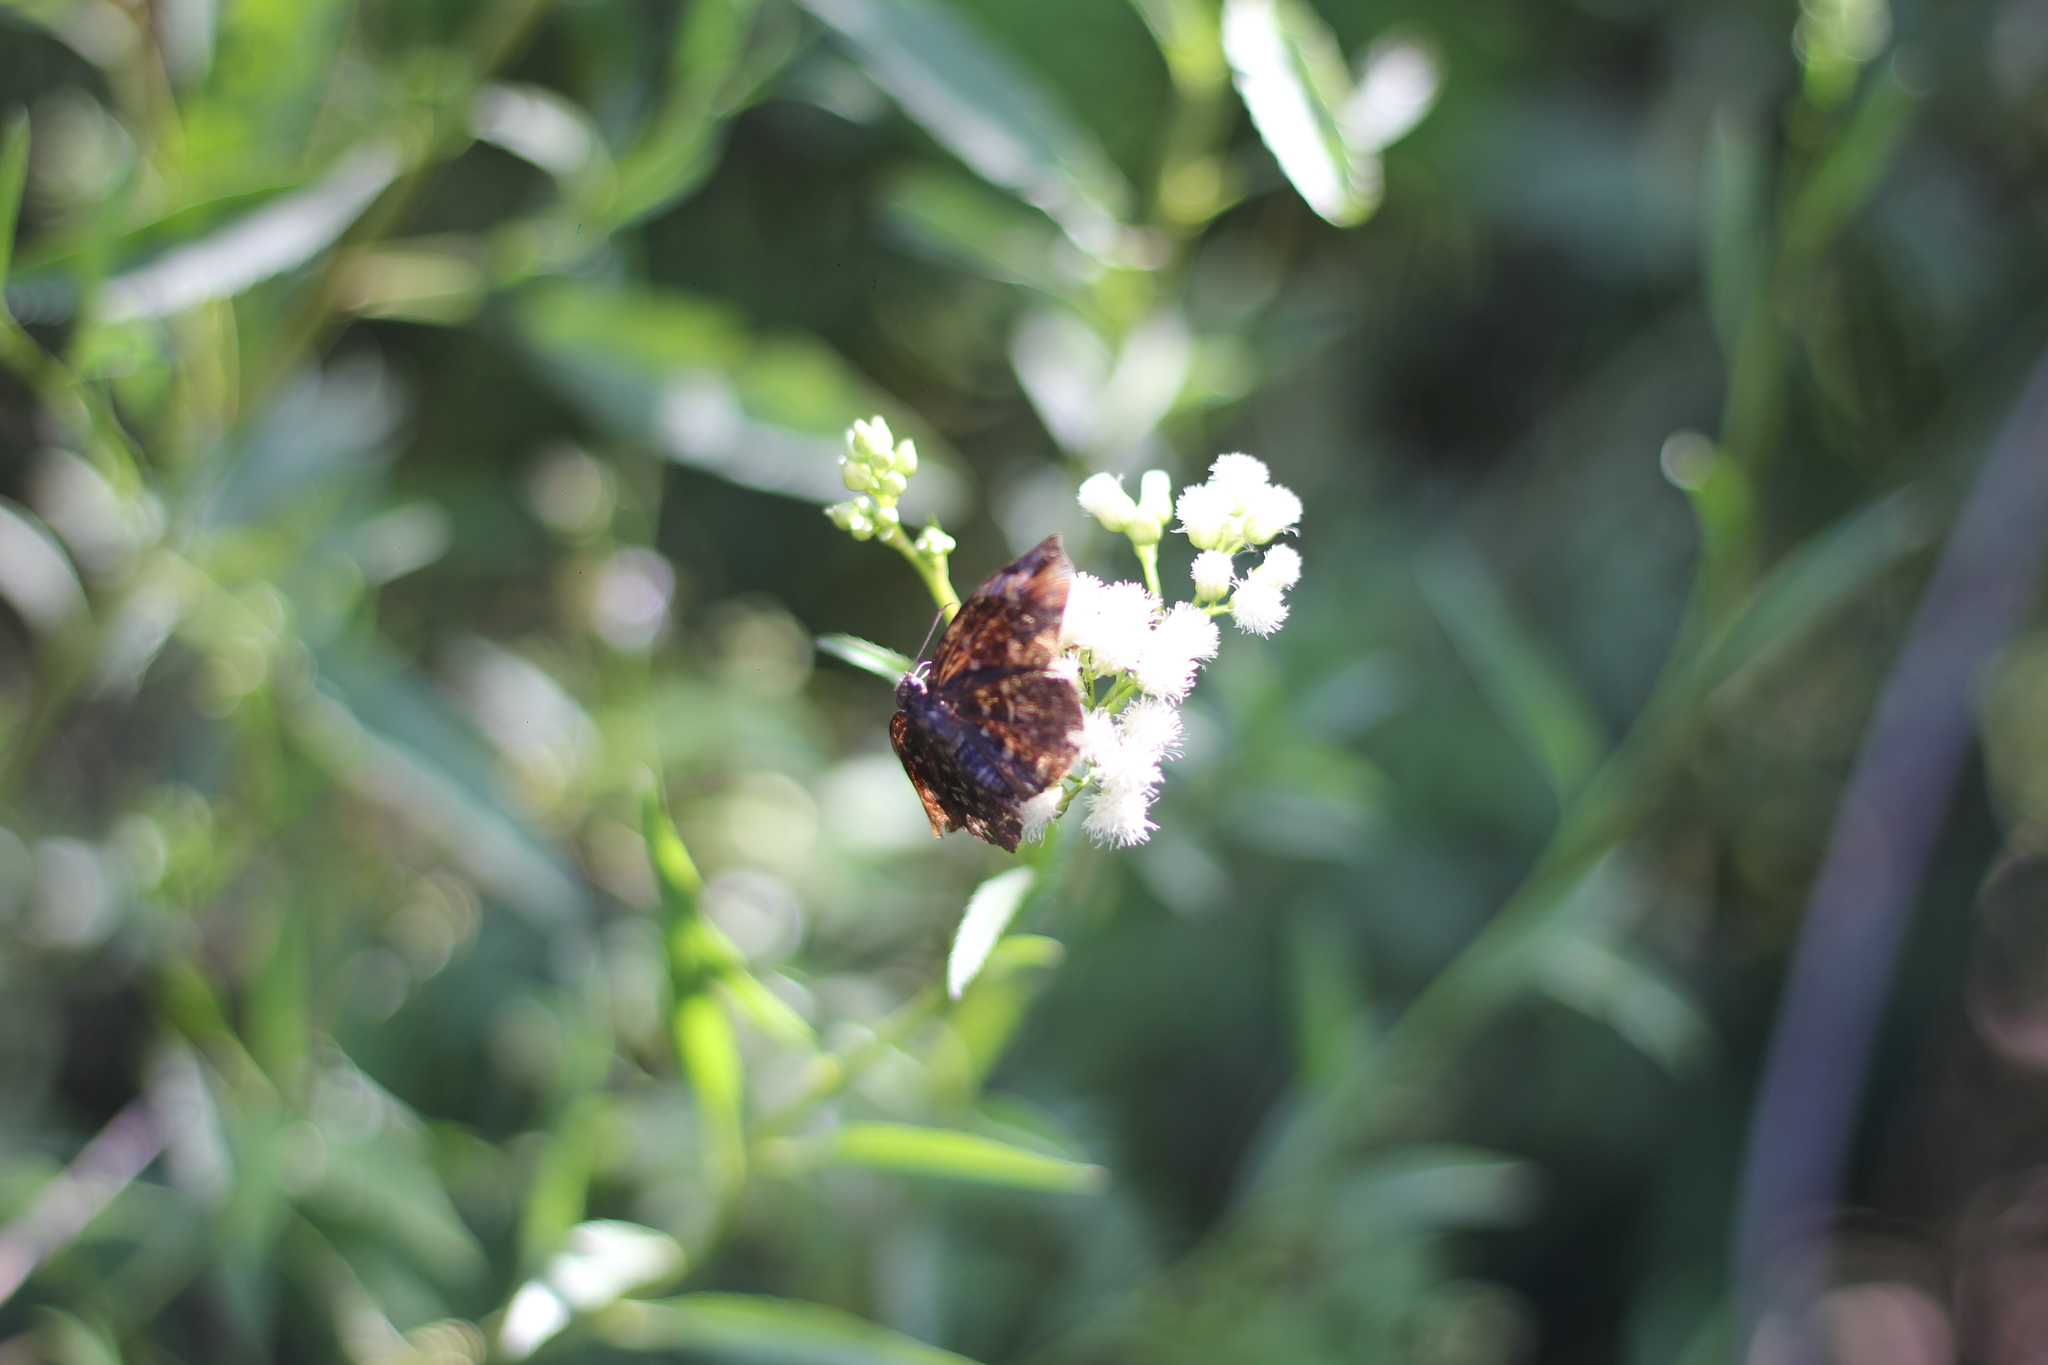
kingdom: Animalia
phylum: Arthropoda
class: Insecta
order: Lepidoptera
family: Hesperiidae
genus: Achlyodes
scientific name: Achlyodes thraso
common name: Sickle-winged skipper
